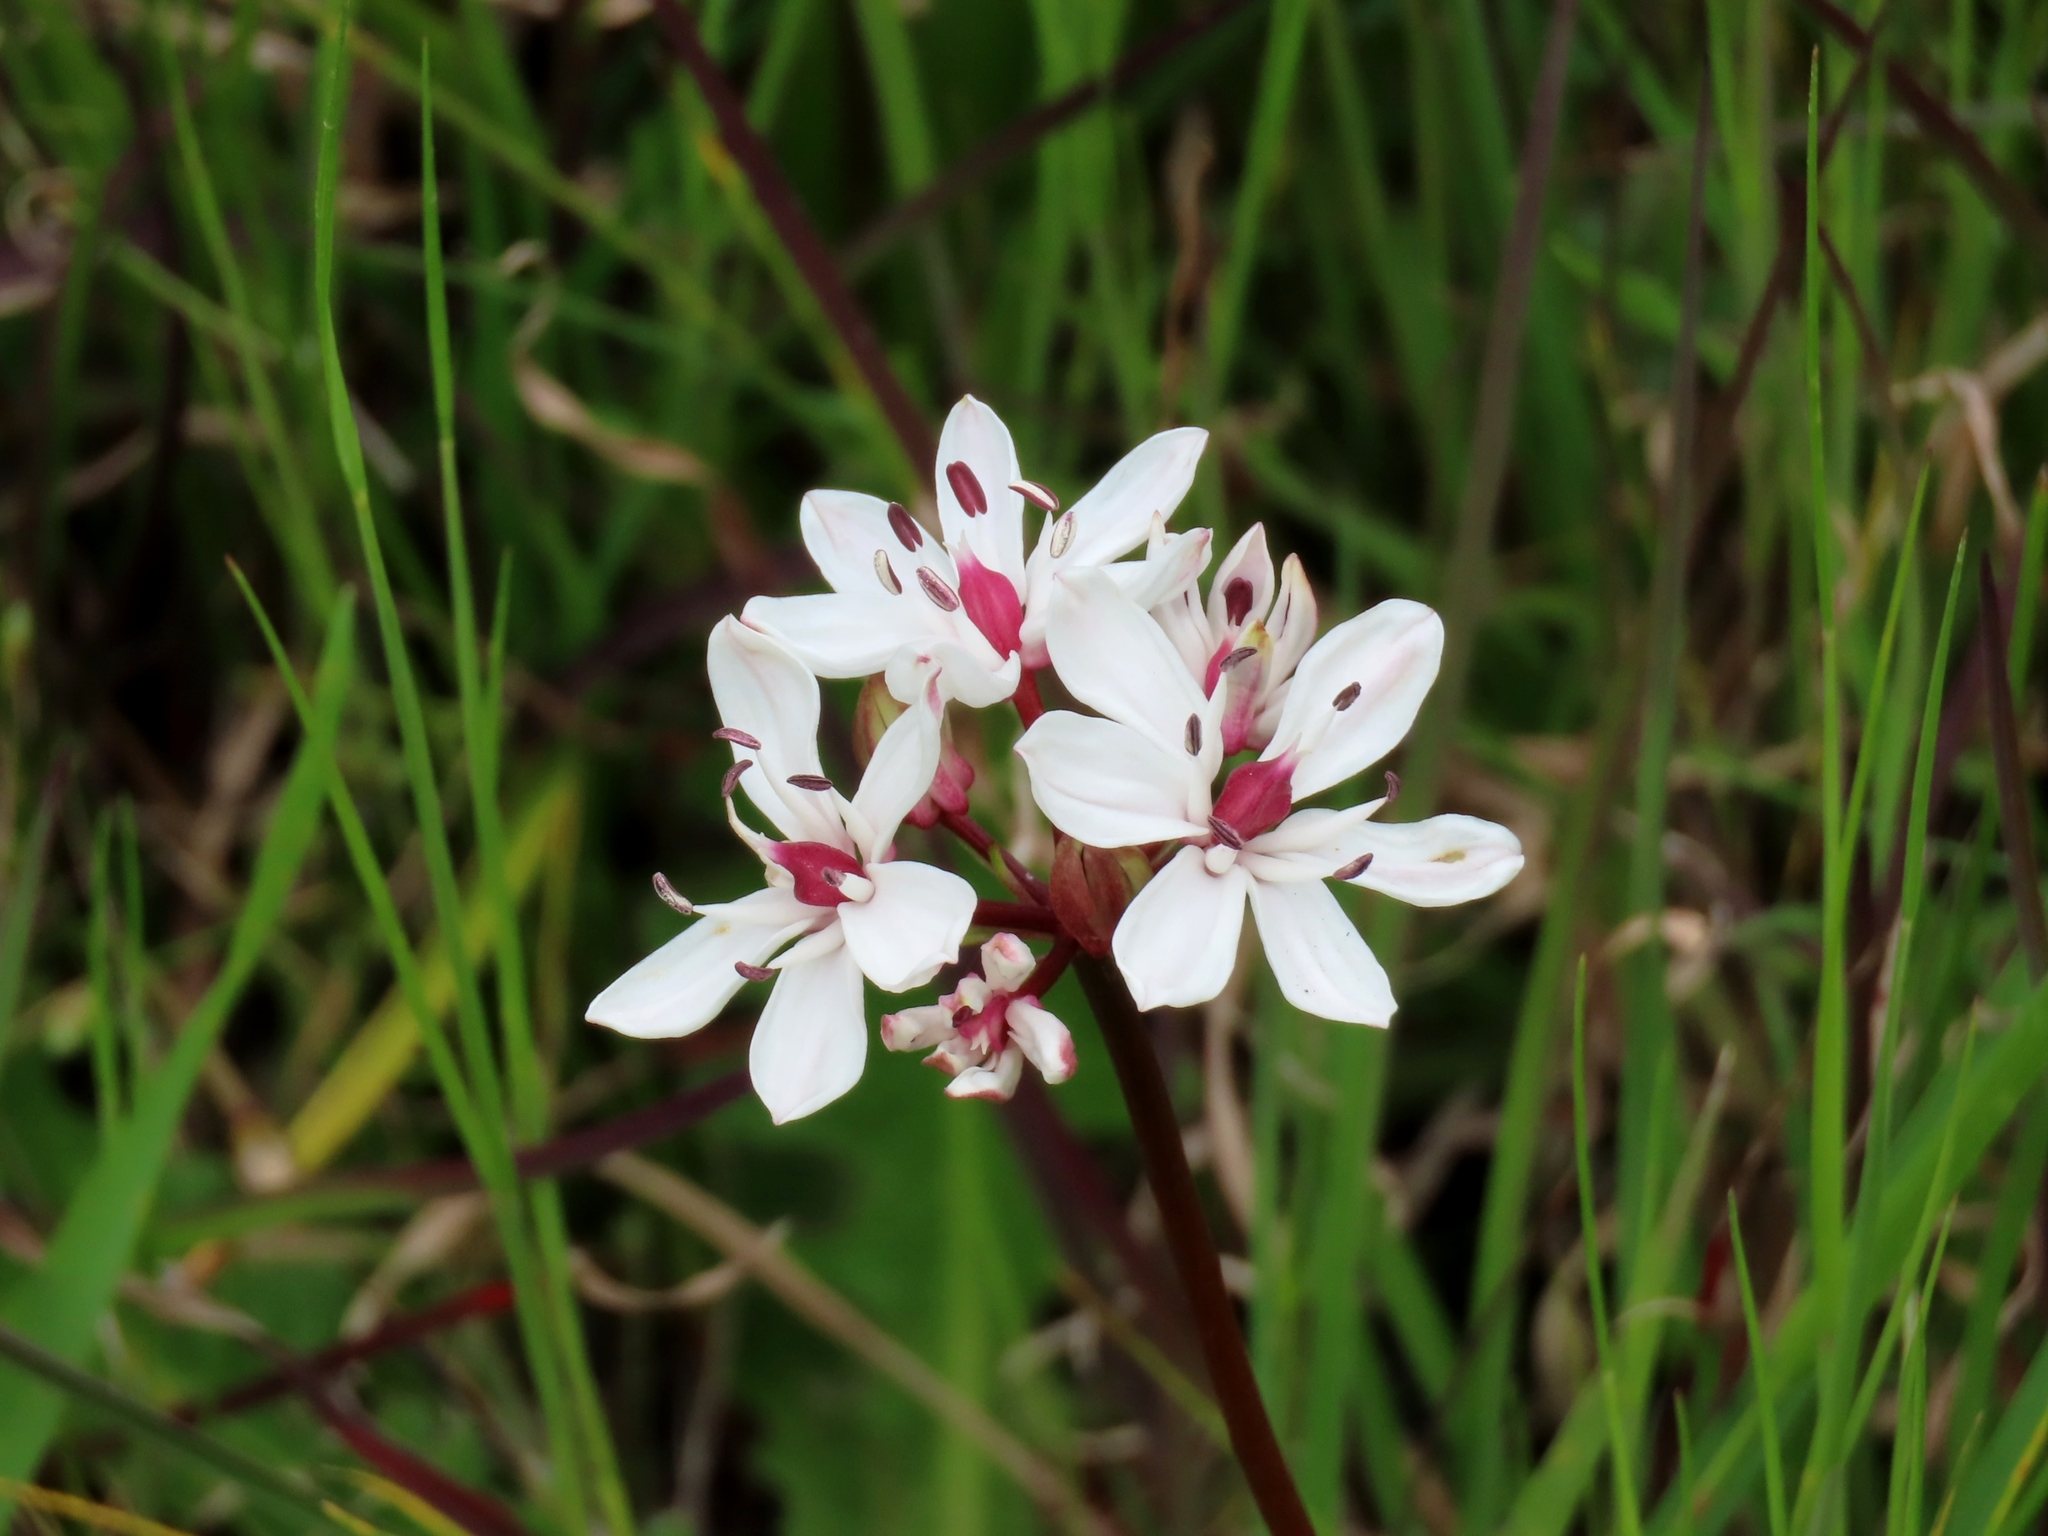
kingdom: Plantae
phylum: Tracheophyta
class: Liliopsida
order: Liliales
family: Colchicaceae
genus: Burchardia
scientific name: Burchardia umbellata
